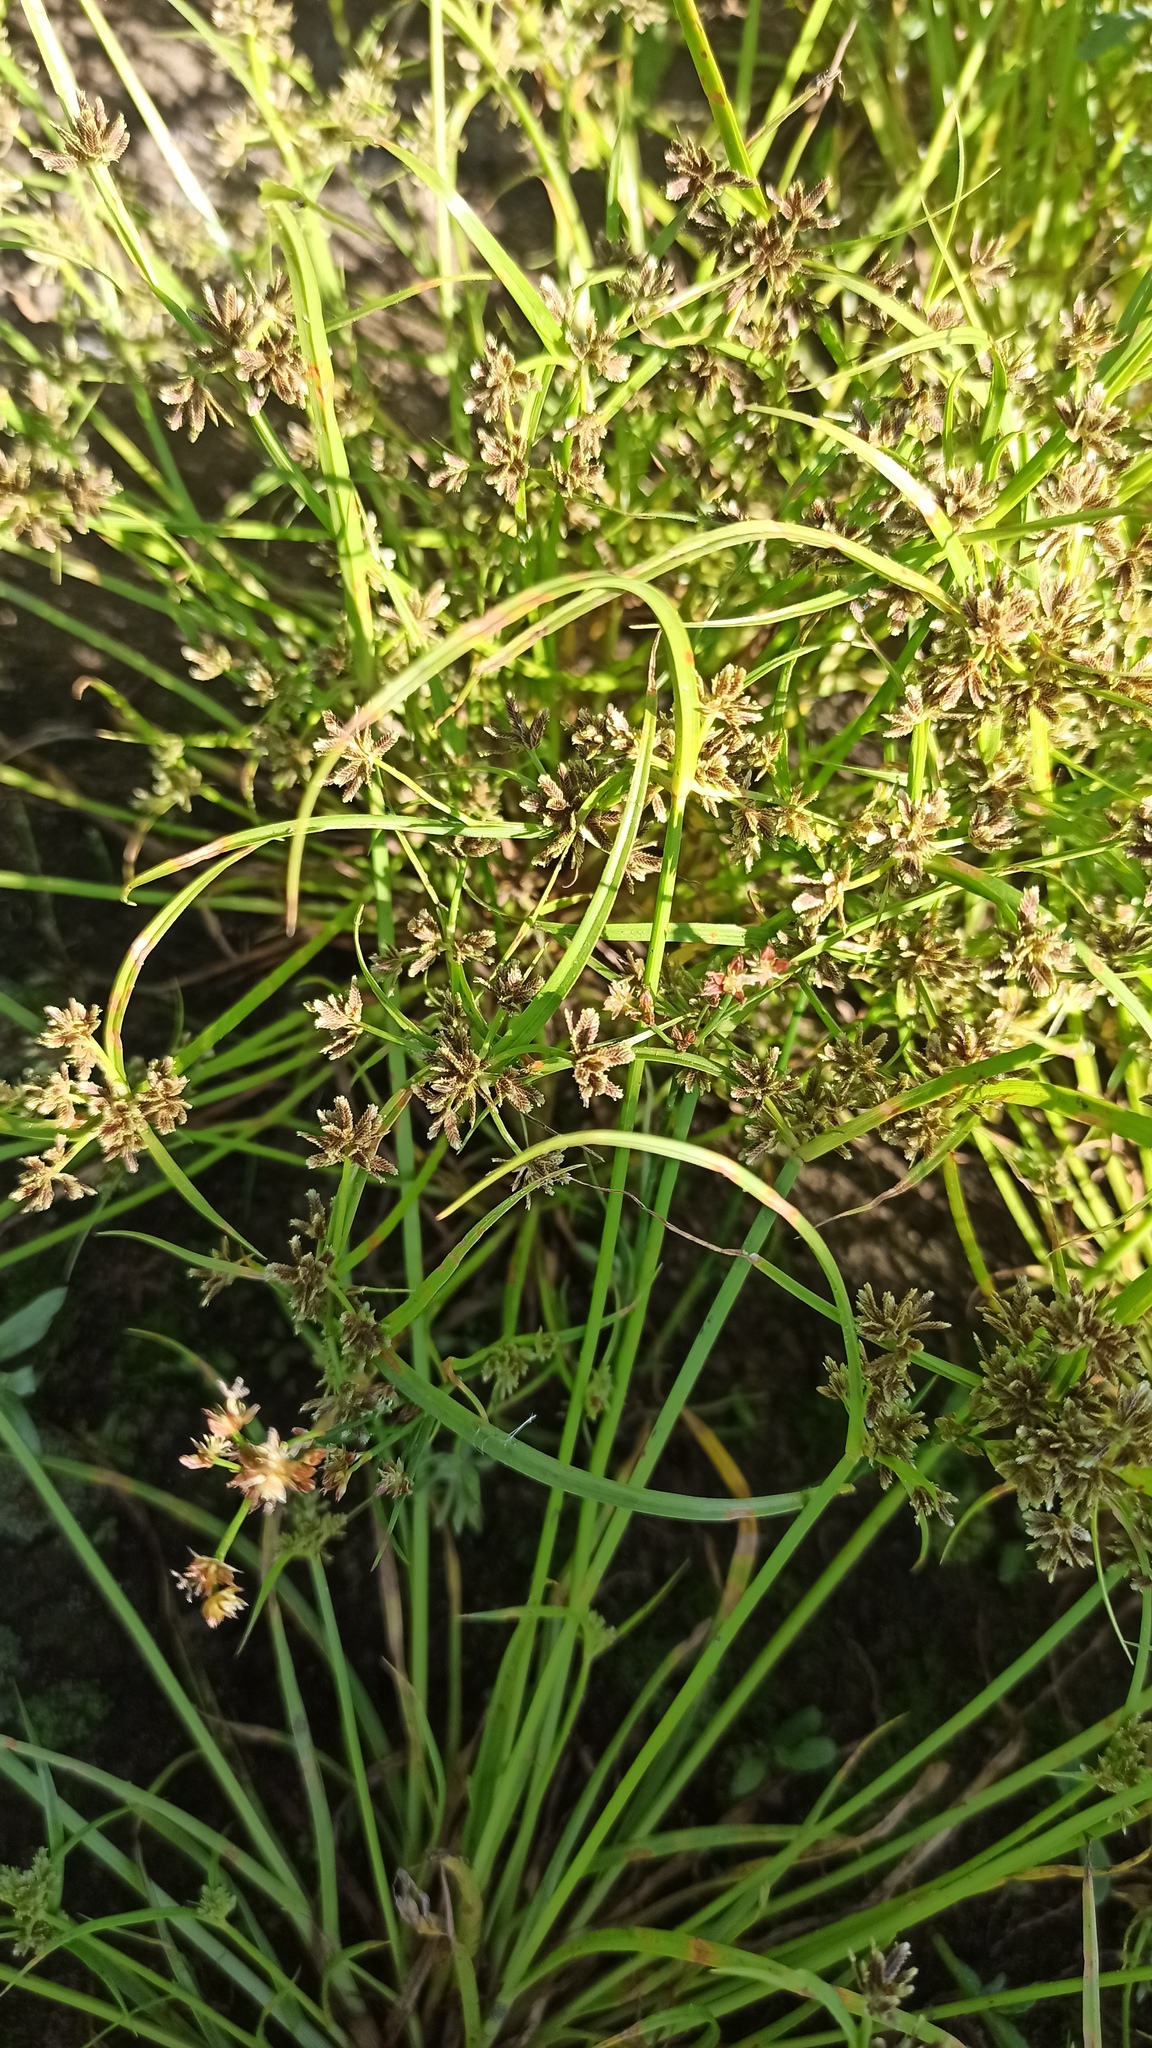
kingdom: Plantae
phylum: Tracheophyta
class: Liliopsida
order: Poales
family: Cyperaceae
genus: Cyperus
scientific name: Cyperus fuscus
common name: Brown galingale
